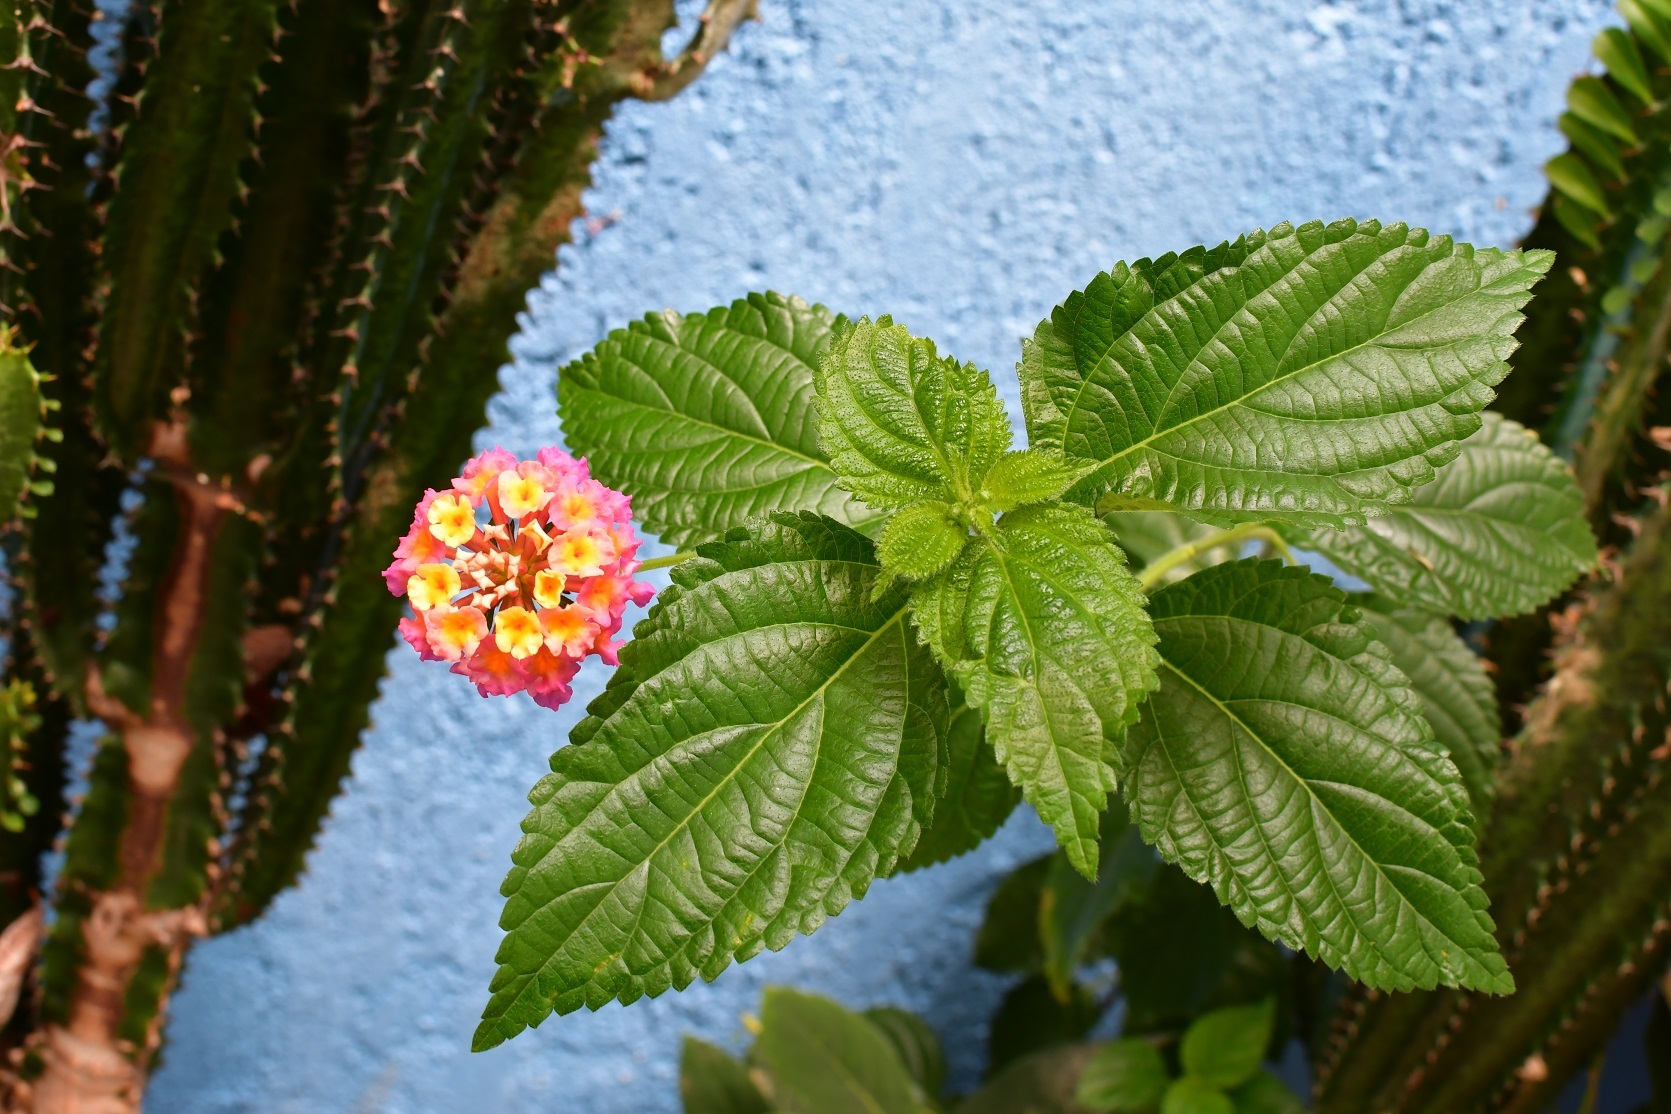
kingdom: Plantae
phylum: Tracheophyta
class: Magnoliopsida
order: Lamiales
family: Verbenaceae
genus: Lantana
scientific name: Lantana camara
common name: Lantana
